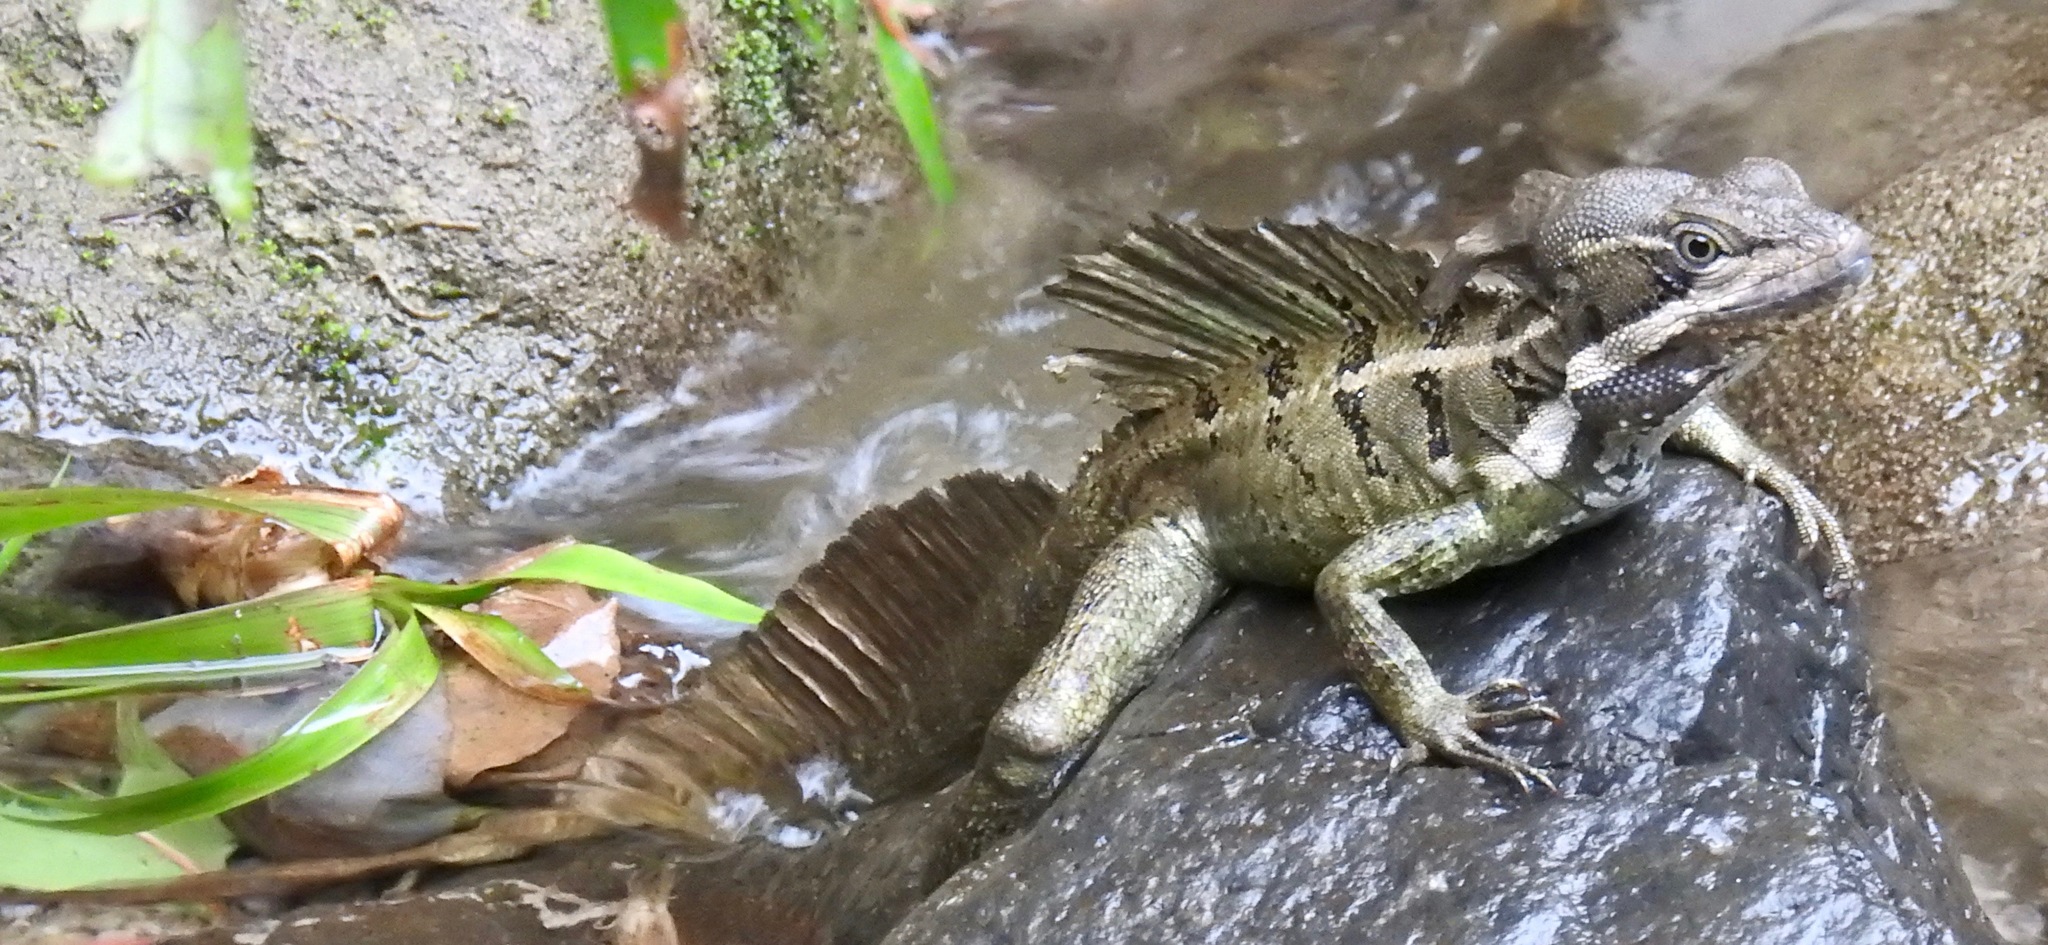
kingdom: Animalia
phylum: Chordata
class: Squamata
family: Corytophanidae
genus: Basiliscus
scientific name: Basiliscus basiliscus
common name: Common basilisk
